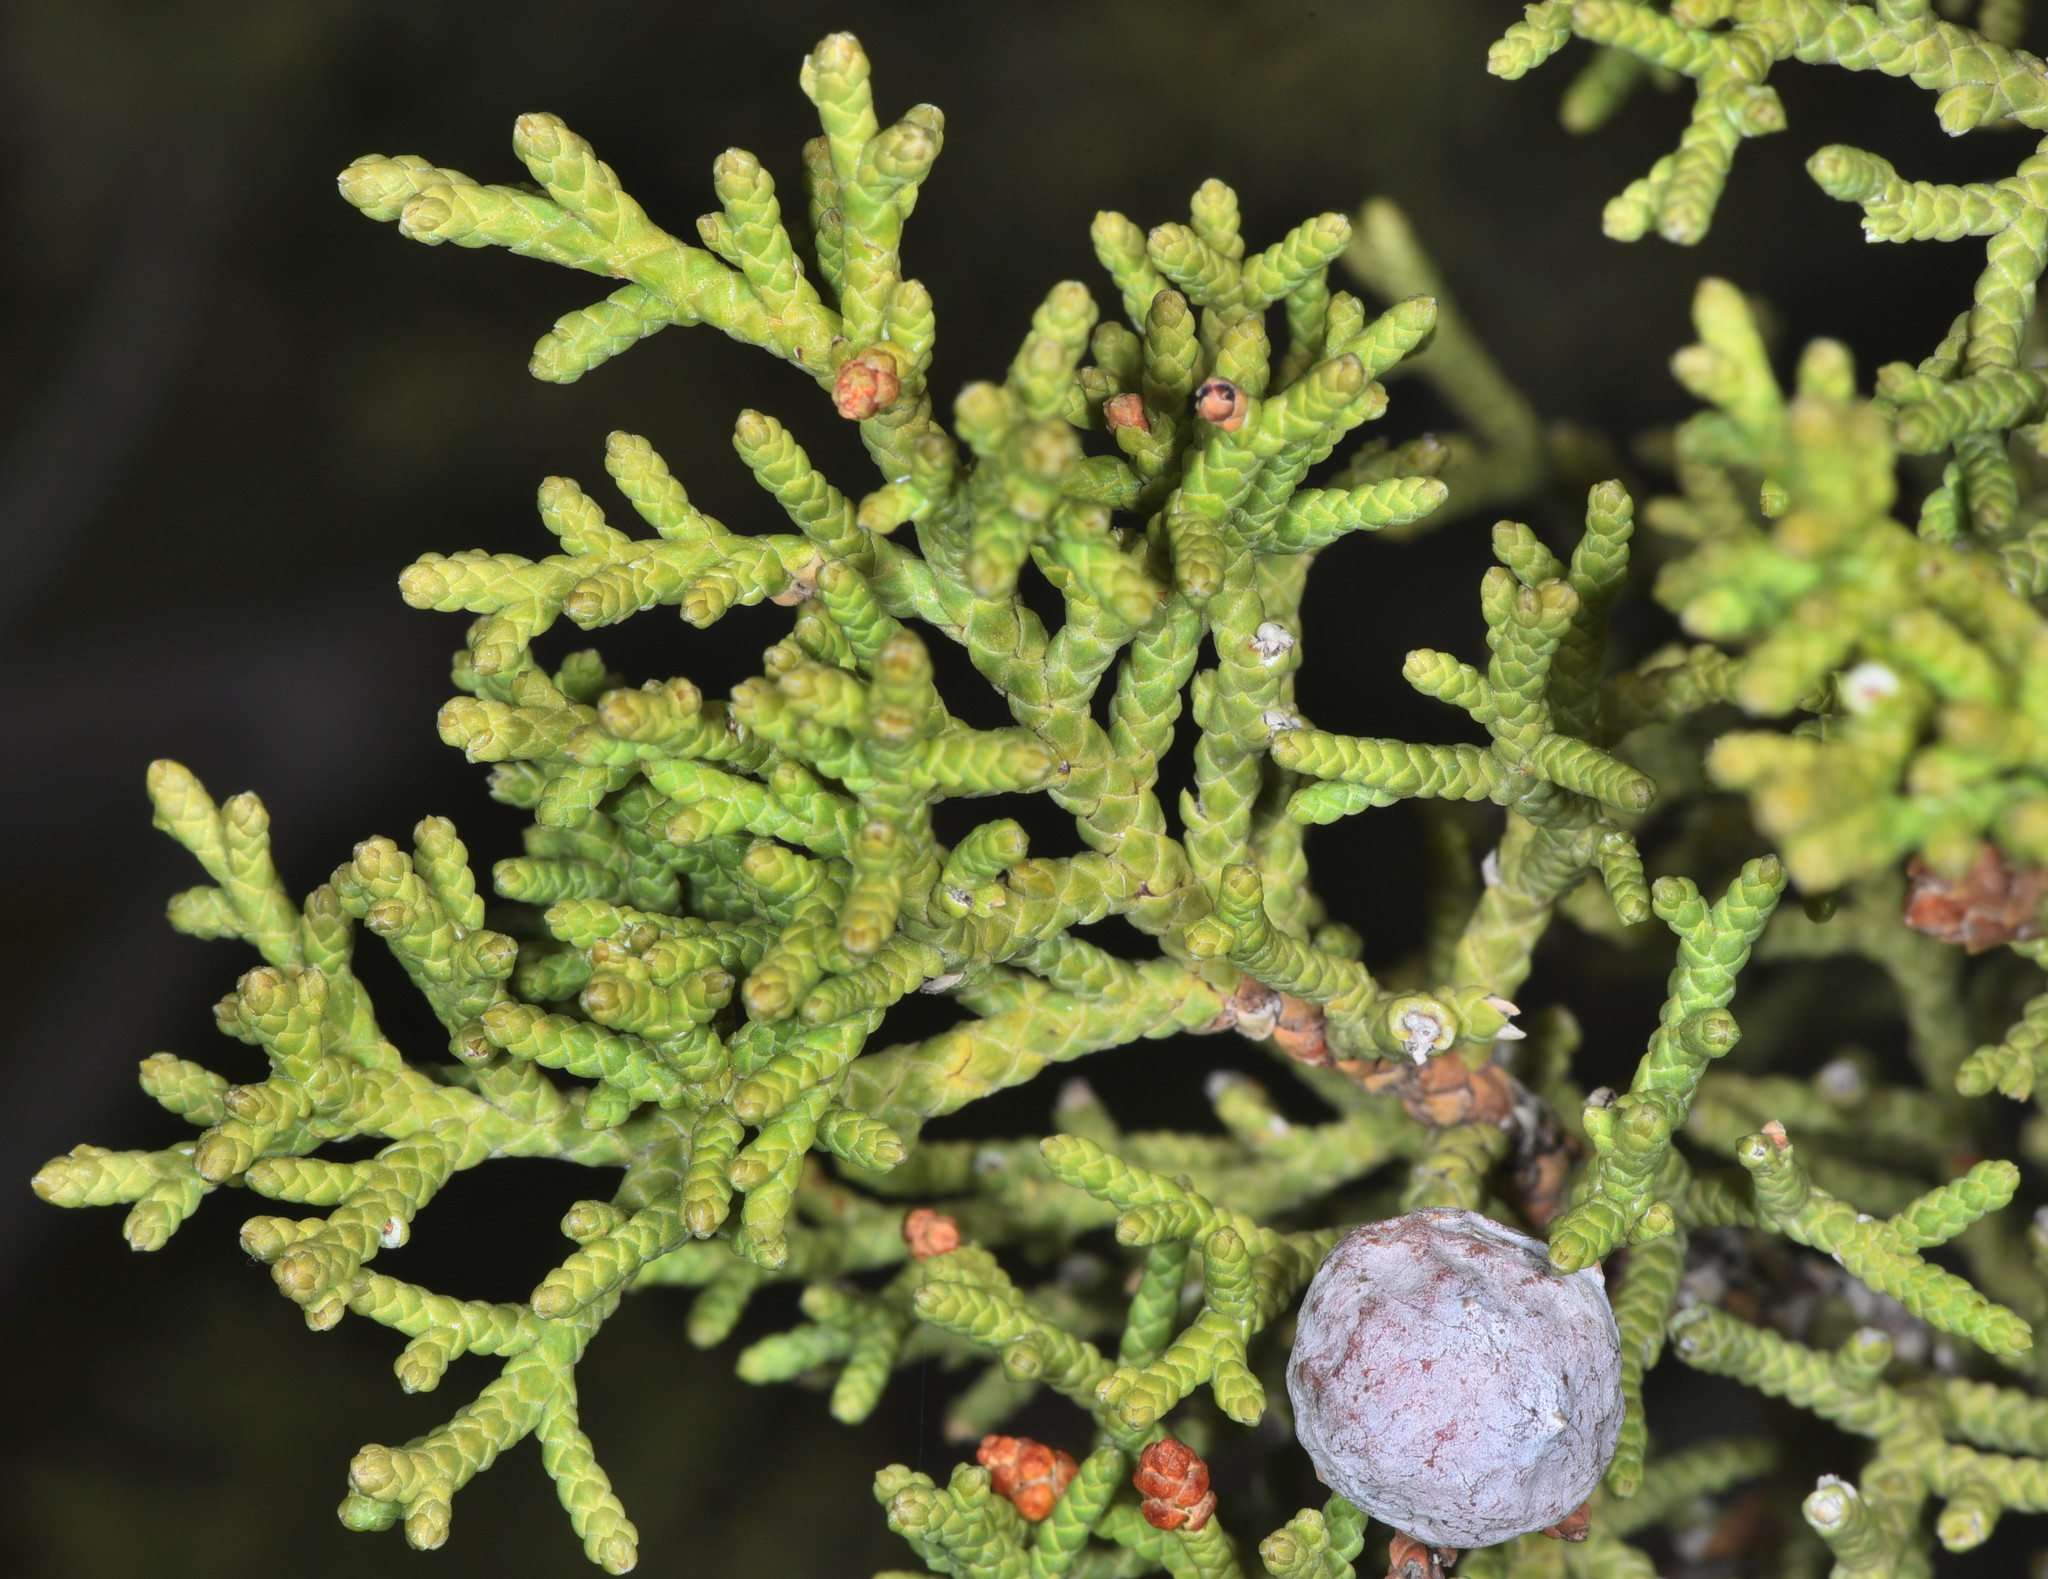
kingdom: Plantae
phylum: Tracheophyta
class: Pinopsida
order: Pinales
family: Cupressaceae
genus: Juniperus
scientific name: Juniperus osteosperma
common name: Utah juniper
